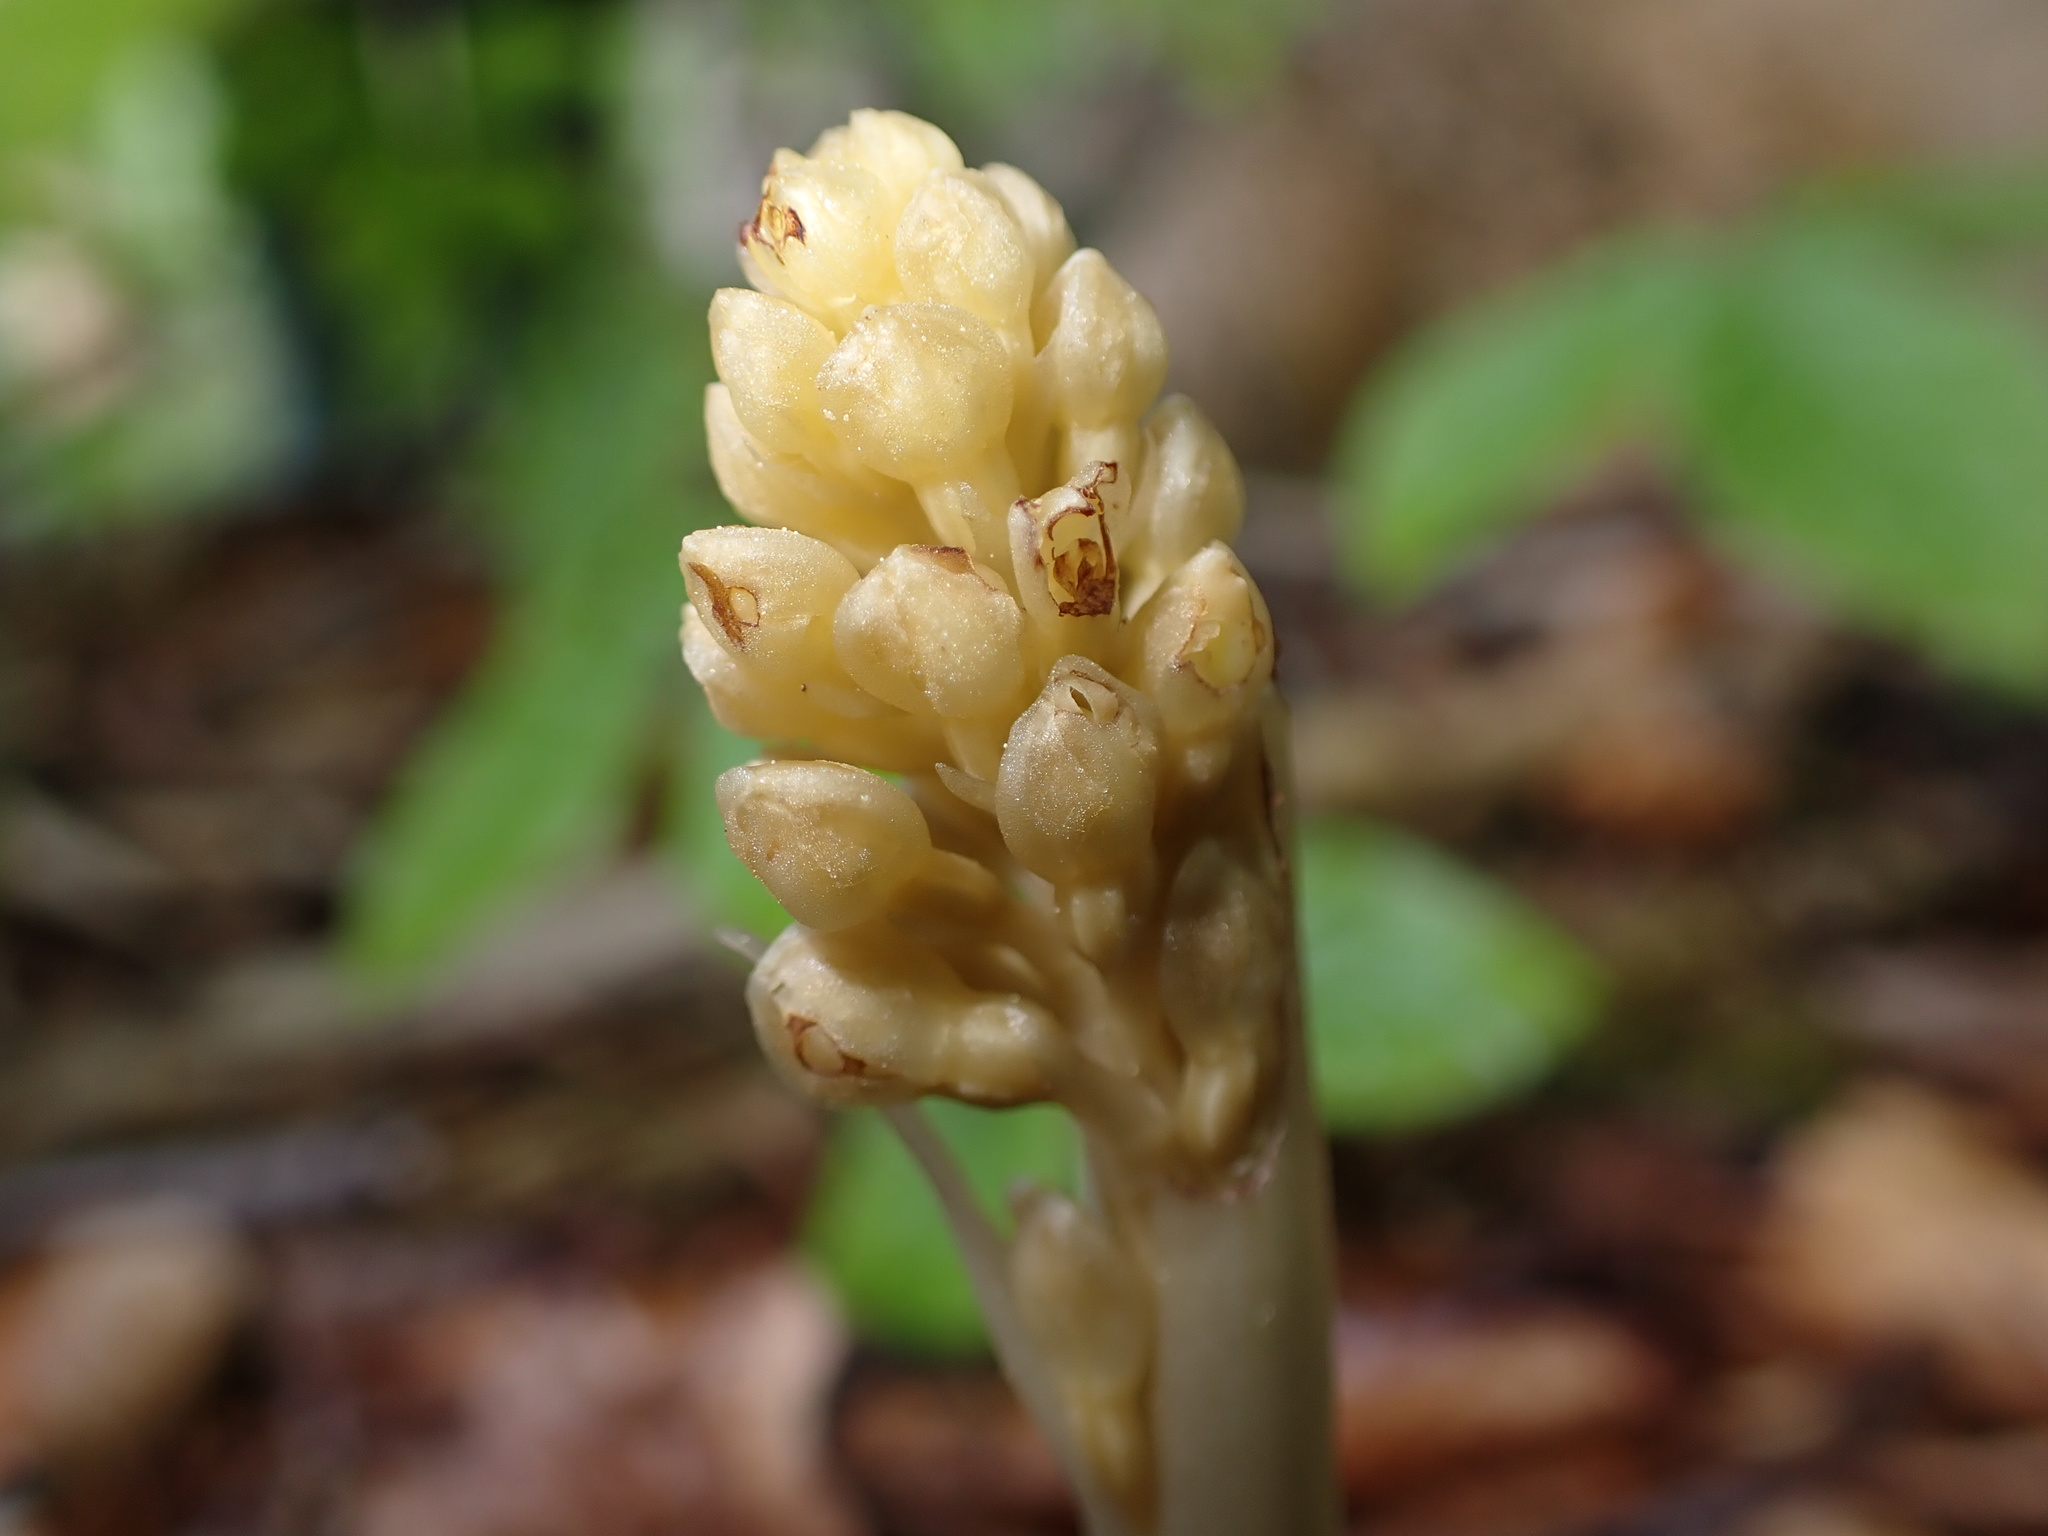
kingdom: Plantae
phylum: Tracheophyta
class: Liliopsida
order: Asparagales
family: Orchidaceae
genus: Neottia
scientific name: Neottia nidus-avis
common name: Bird's-nest orchid
